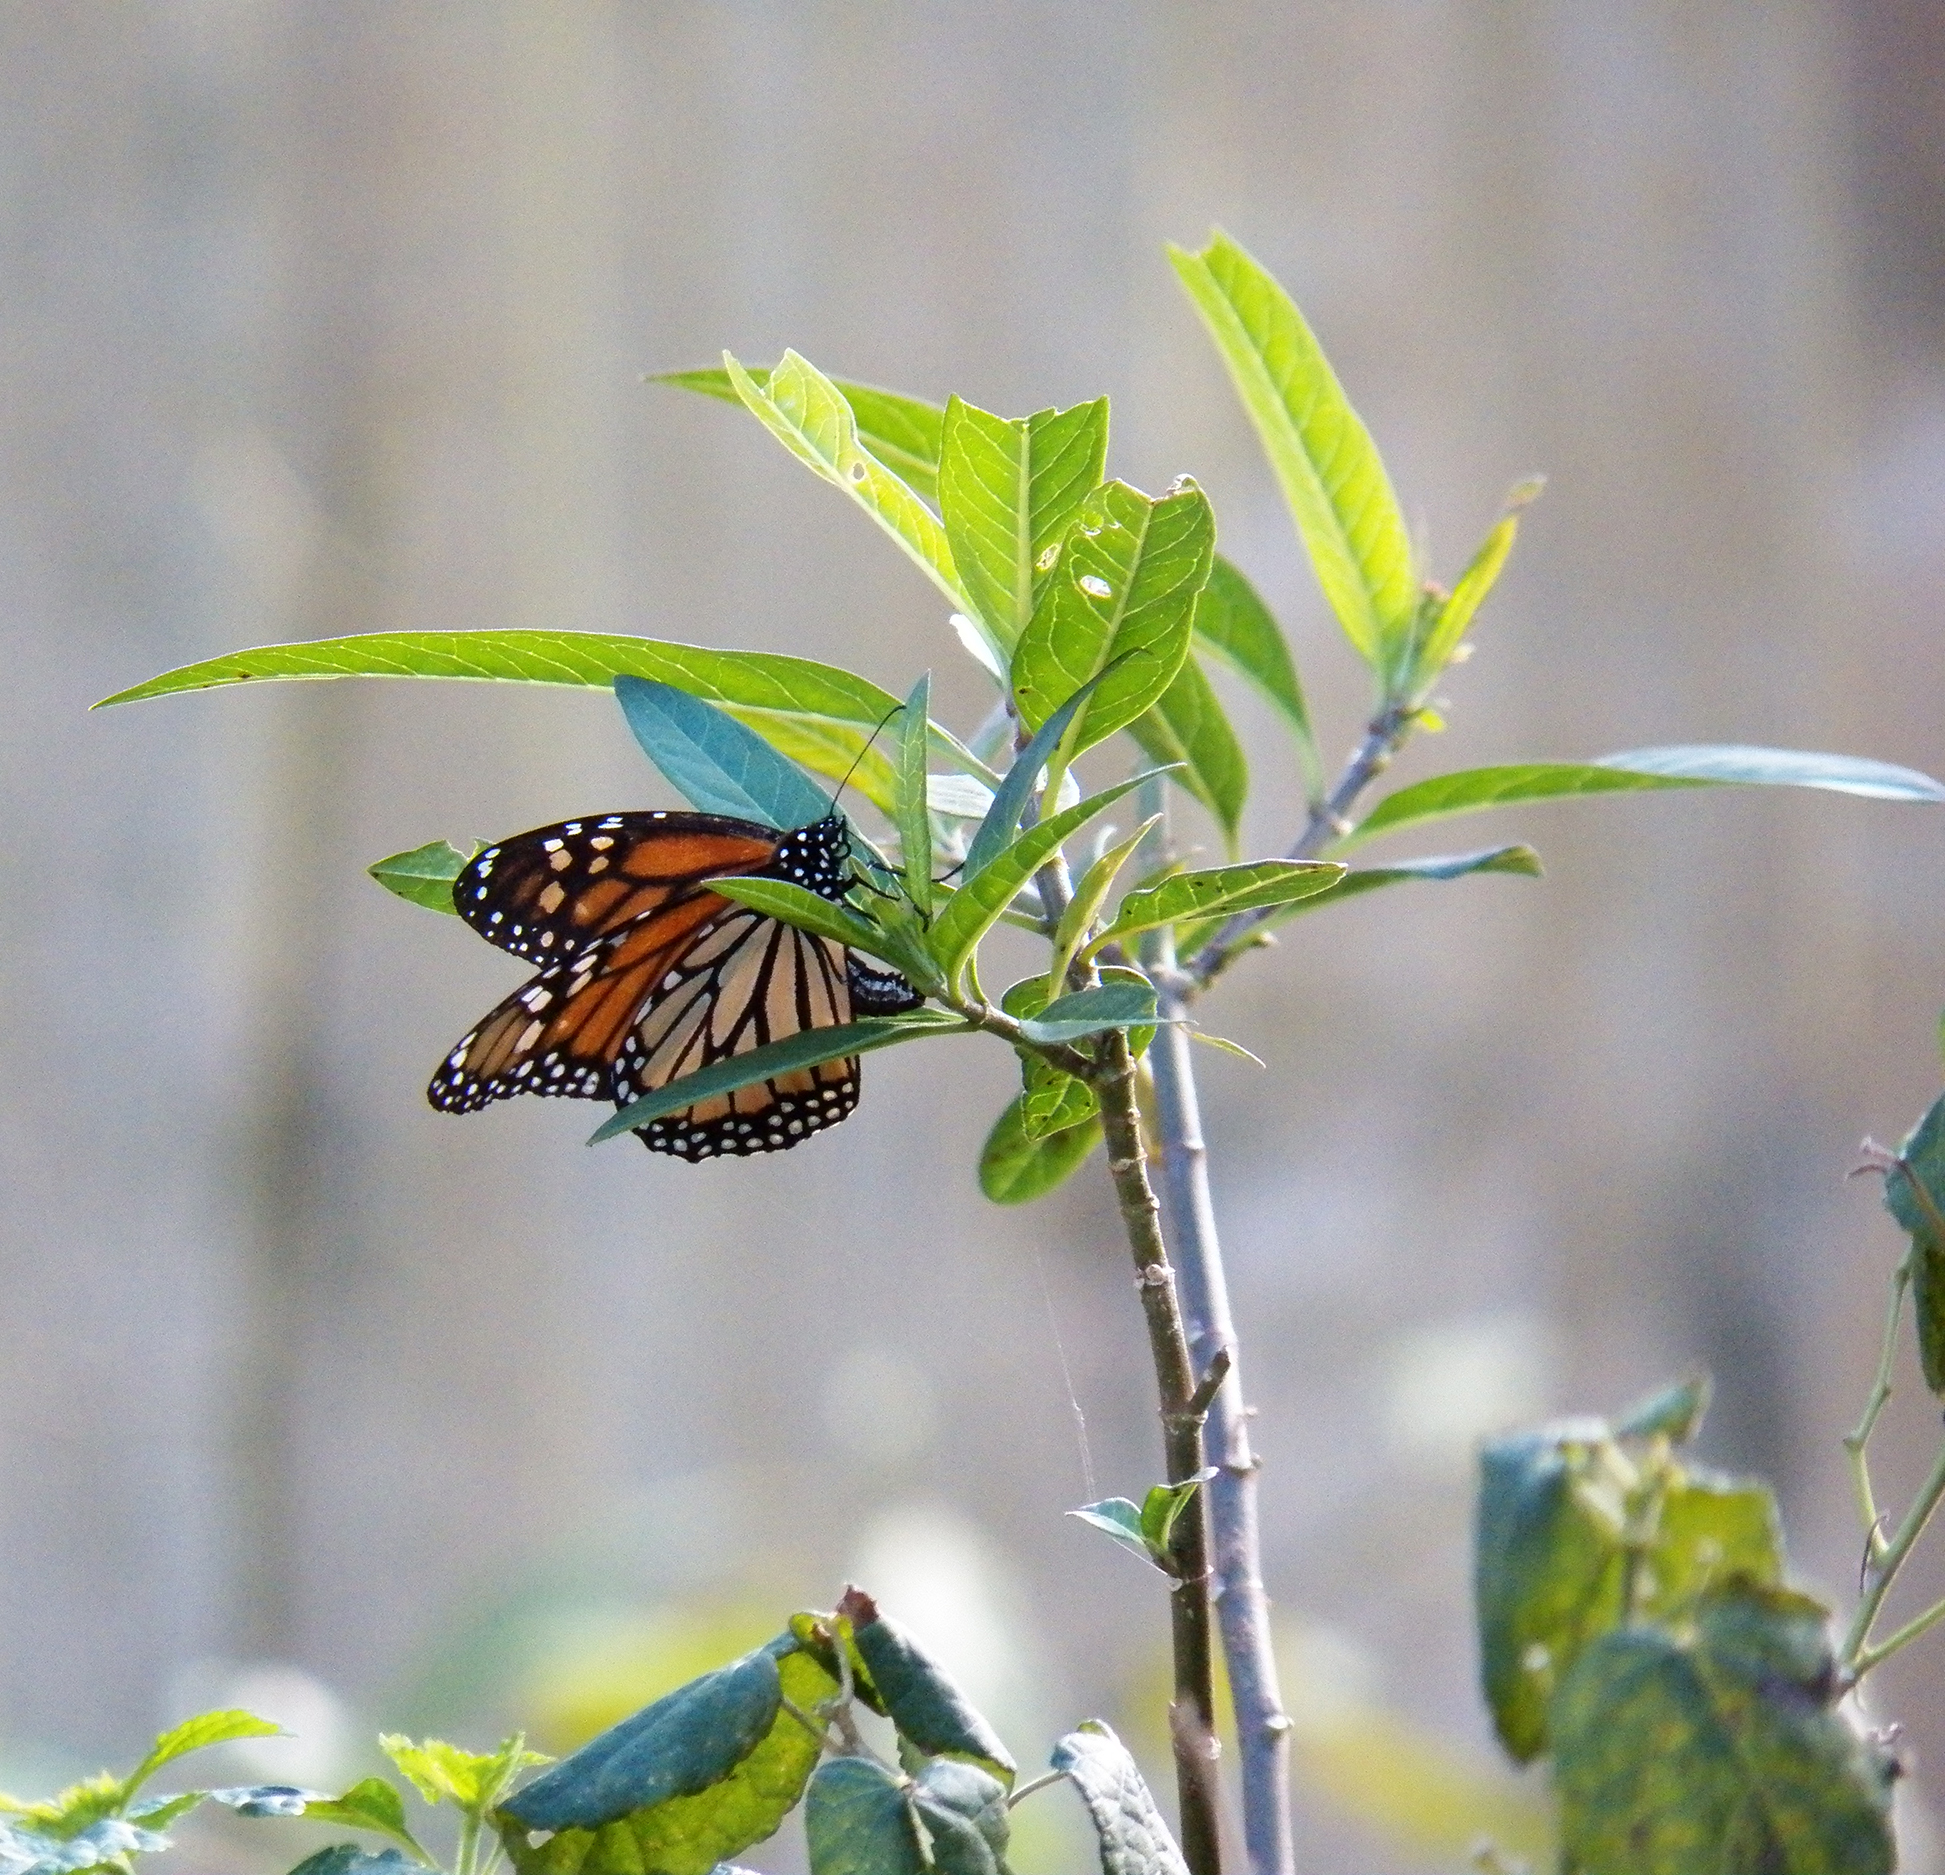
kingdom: Animalia
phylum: Arthropoda
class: Insecta
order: Lepidoptera
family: Nymphalidae
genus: Danaus
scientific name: Danaus plexippus
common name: Monarch
